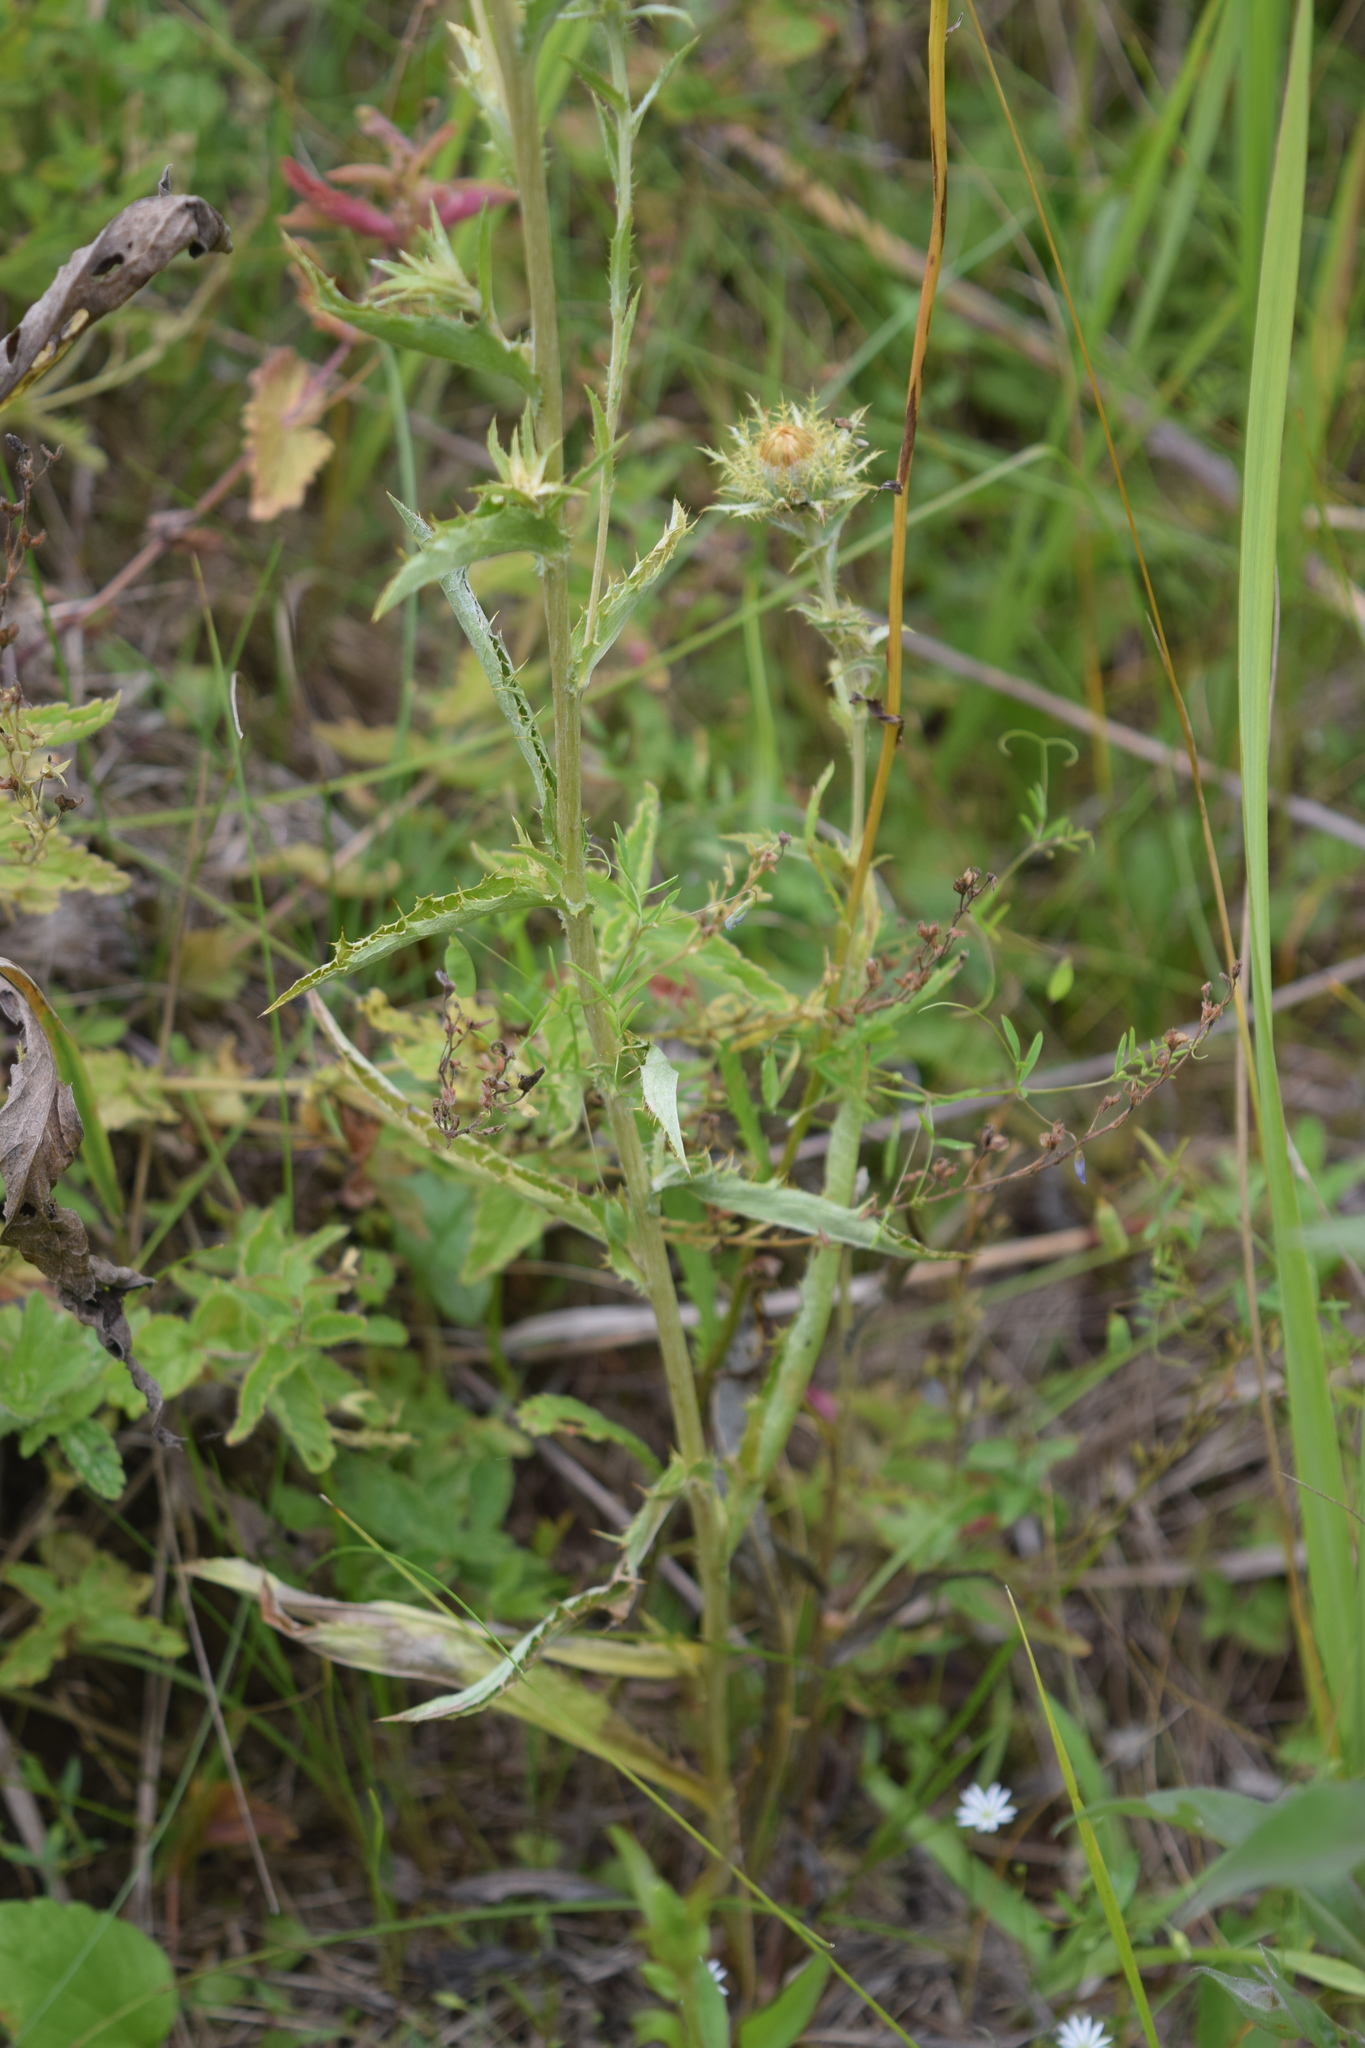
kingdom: Plantae
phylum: Tracheophyta
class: Magnoliopsida
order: Asterales
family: Asteraceae
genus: Carlina
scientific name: Carlina biebersteinii
